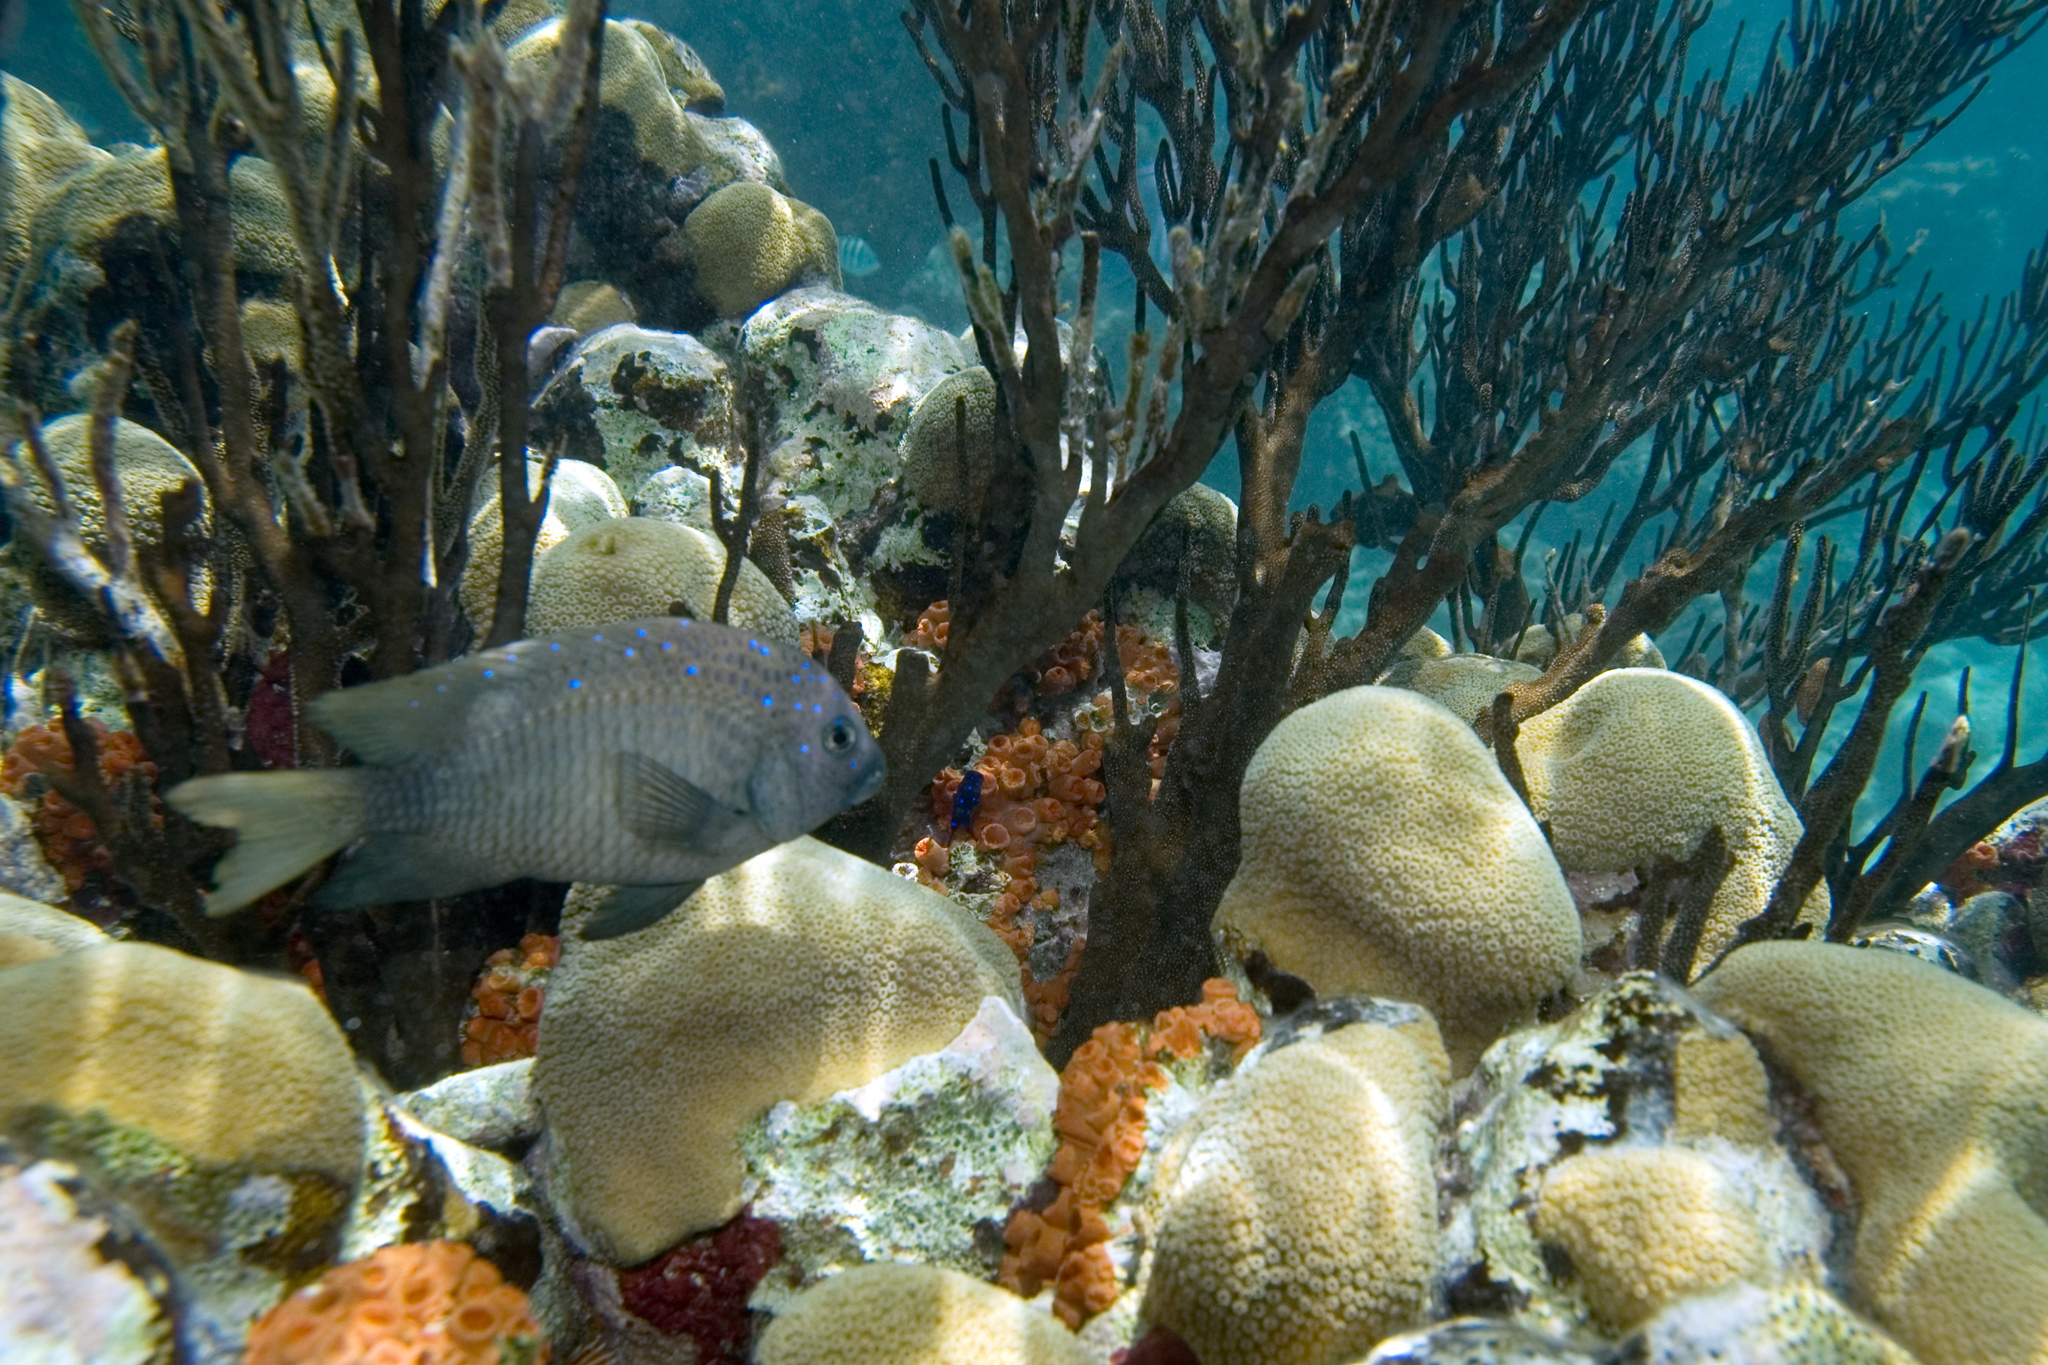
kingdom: Animalia
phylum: Chordata
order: Perciformes
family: Pomacentridae
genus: Microspathodon
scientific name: Microspathodon chrysurus
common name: Yellowtail damselfish
